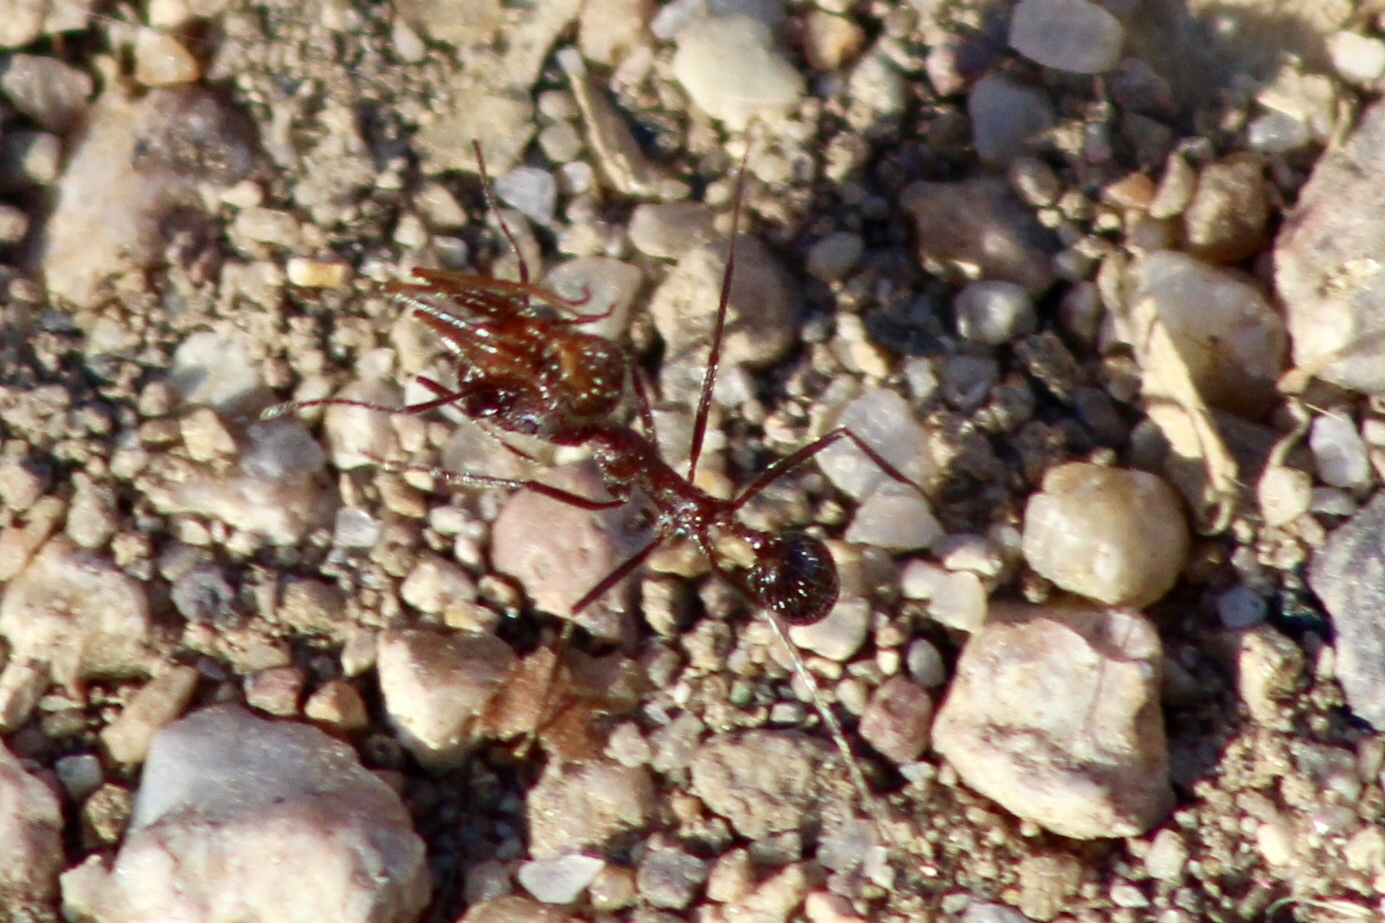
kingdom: Animalia
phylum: Arthropoda
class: Insecta
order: Hymenoptera
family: Formicidae
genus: Novomessor
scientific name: Novomessor cockerelli
